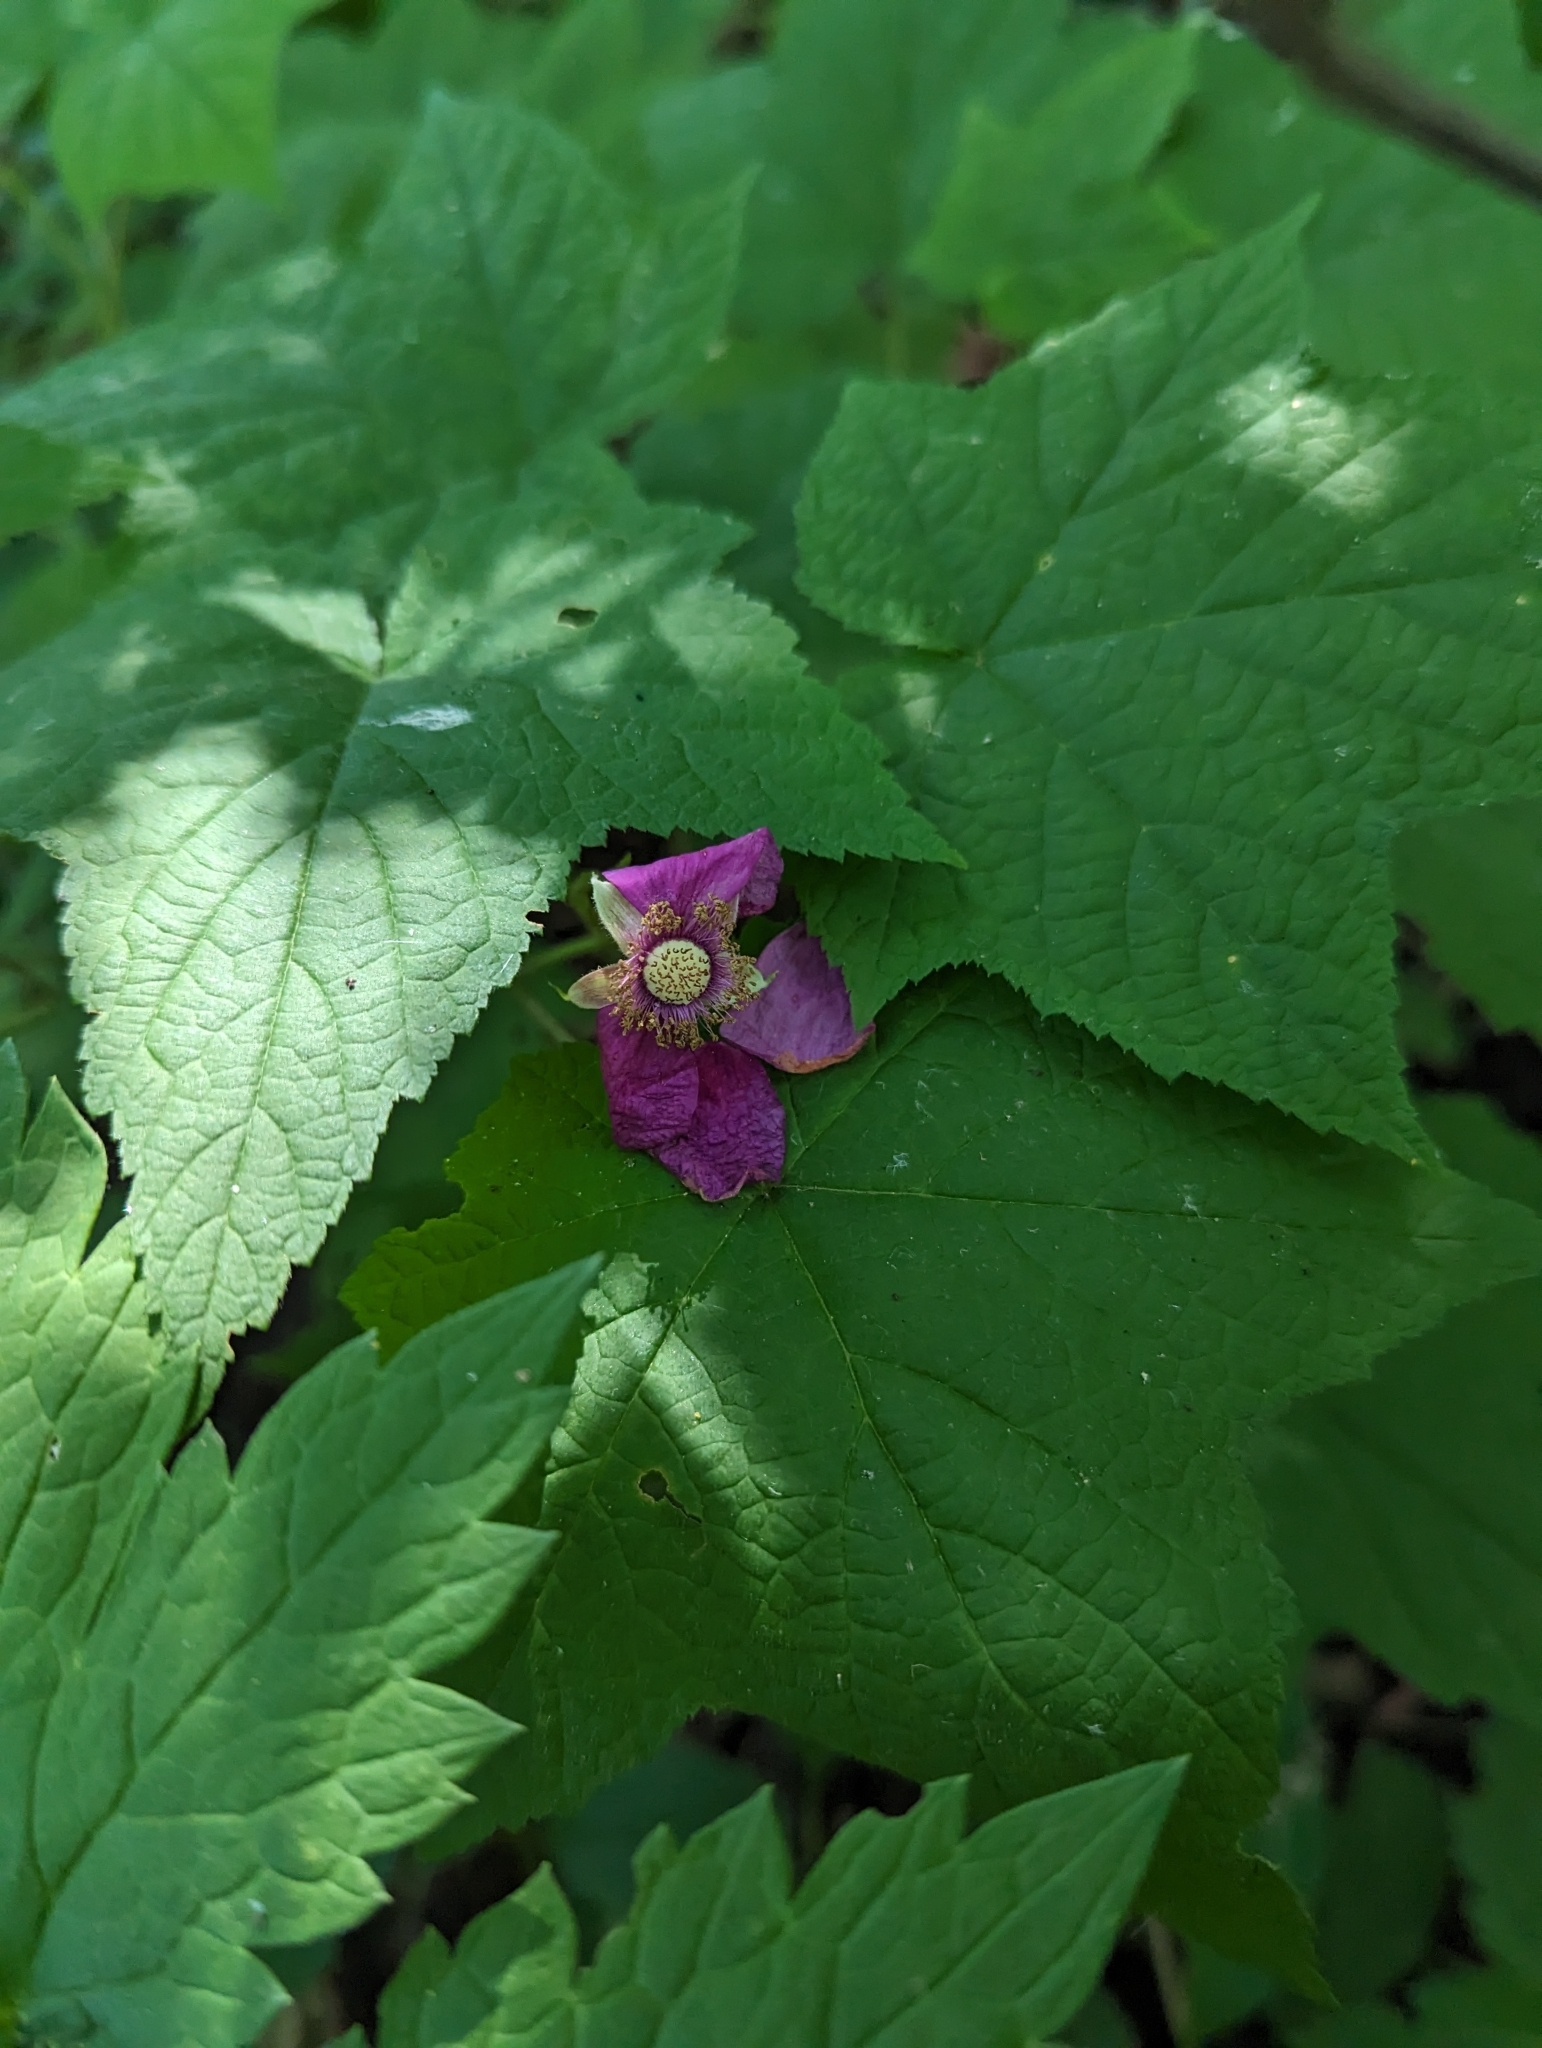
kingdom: Plantae
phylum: Tracheophyta
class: Magnoliopsida
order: Rosales
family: Rosaceae
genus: Rubus
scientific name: Rubus odoratus
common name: Purple-flowered raspberry
